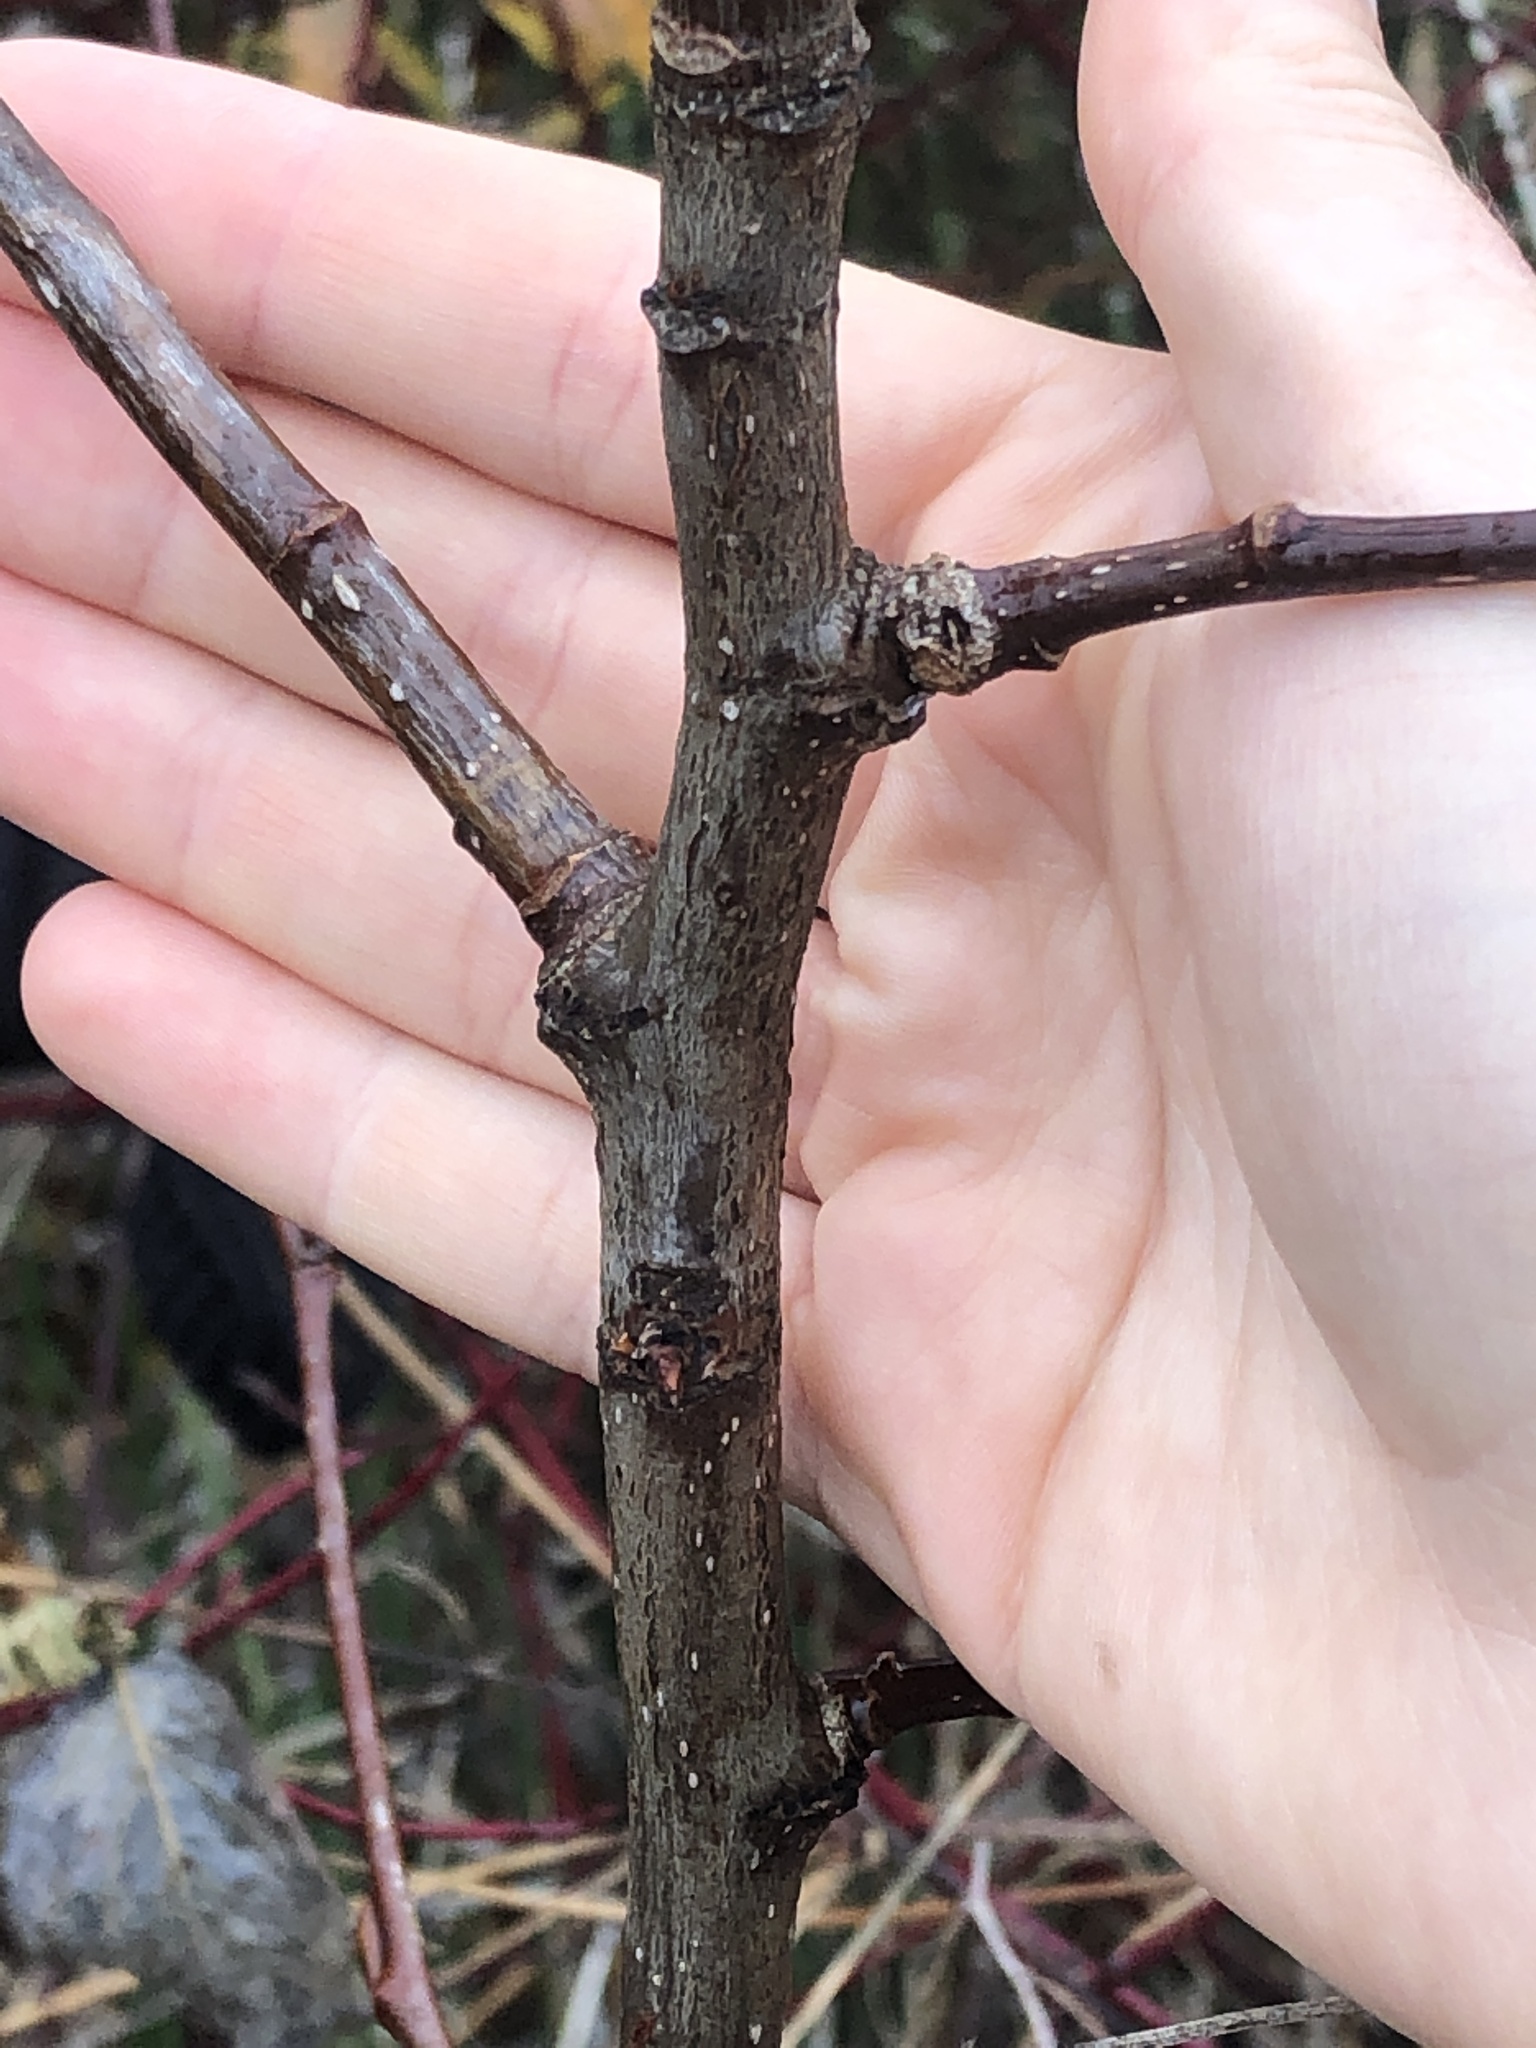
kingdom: Plantae
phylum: Tracheophyta
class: Magnoliopsida
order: Malpighiales
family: Salicaceae
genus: Populus
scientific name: Populus balsamifera
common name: Balsam poplar
